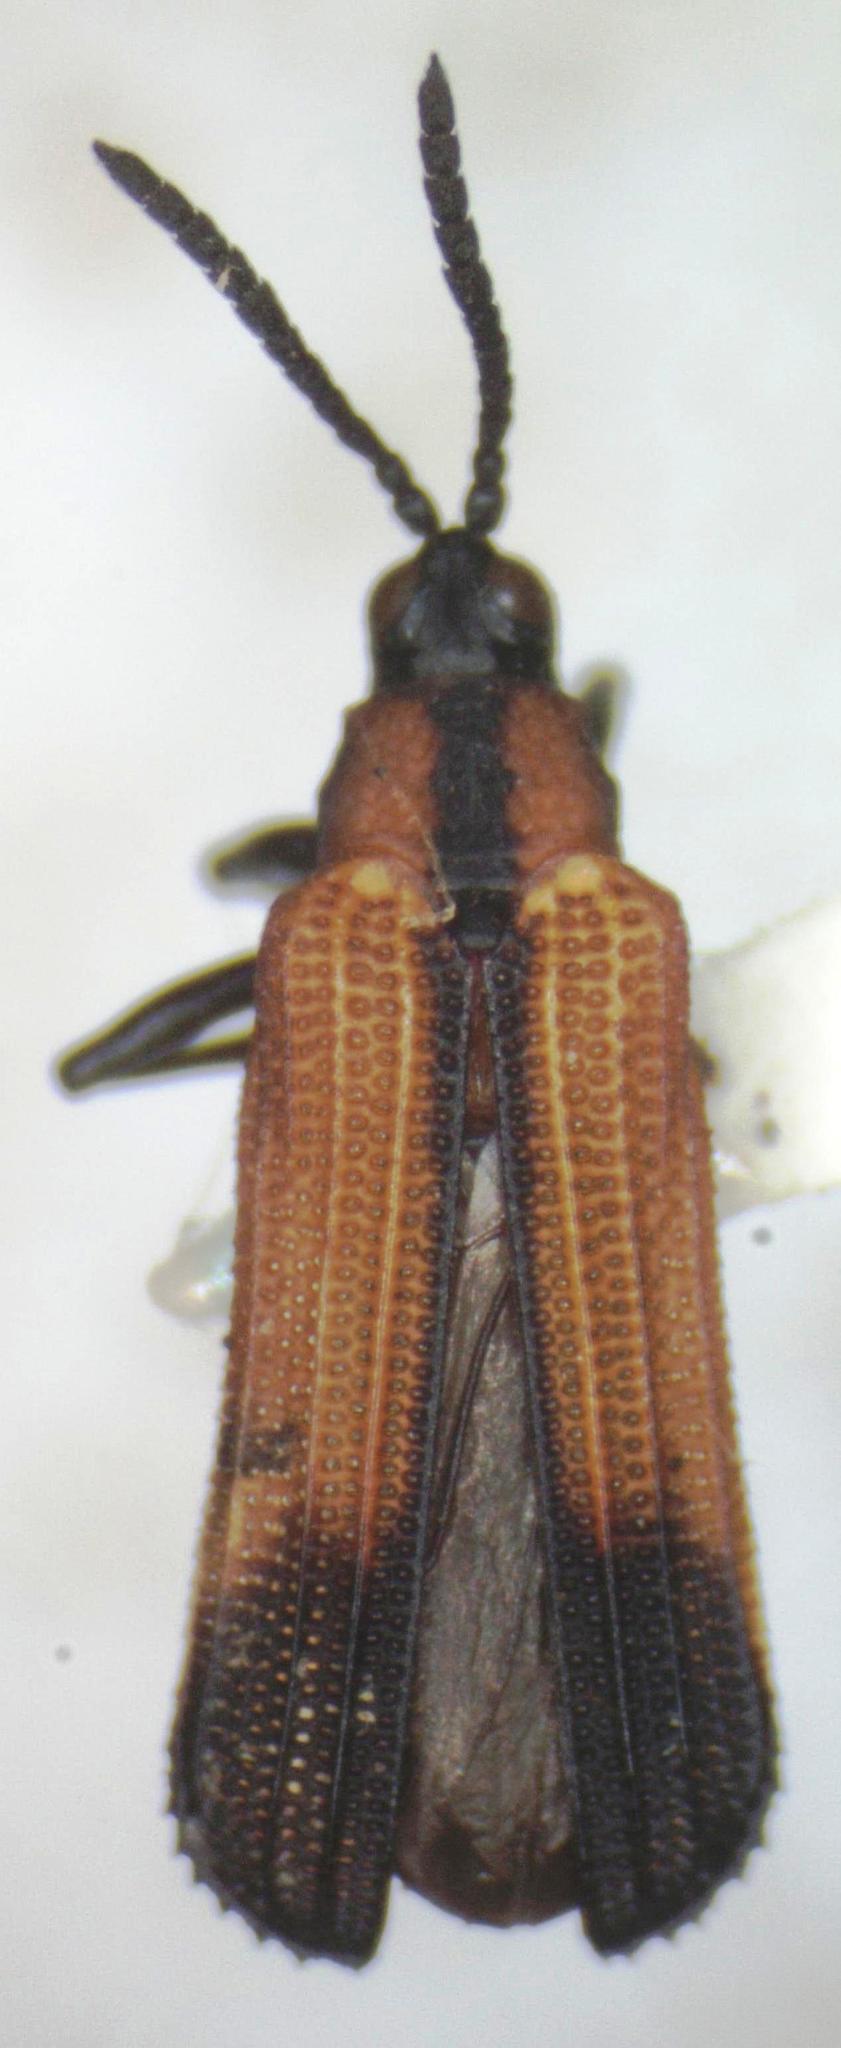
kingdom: Animalia
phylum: Arthropoda
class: Insecta
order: Coleoptera
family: Chrysomelidae
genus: Chalepus
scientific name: Chalepus angulosus
